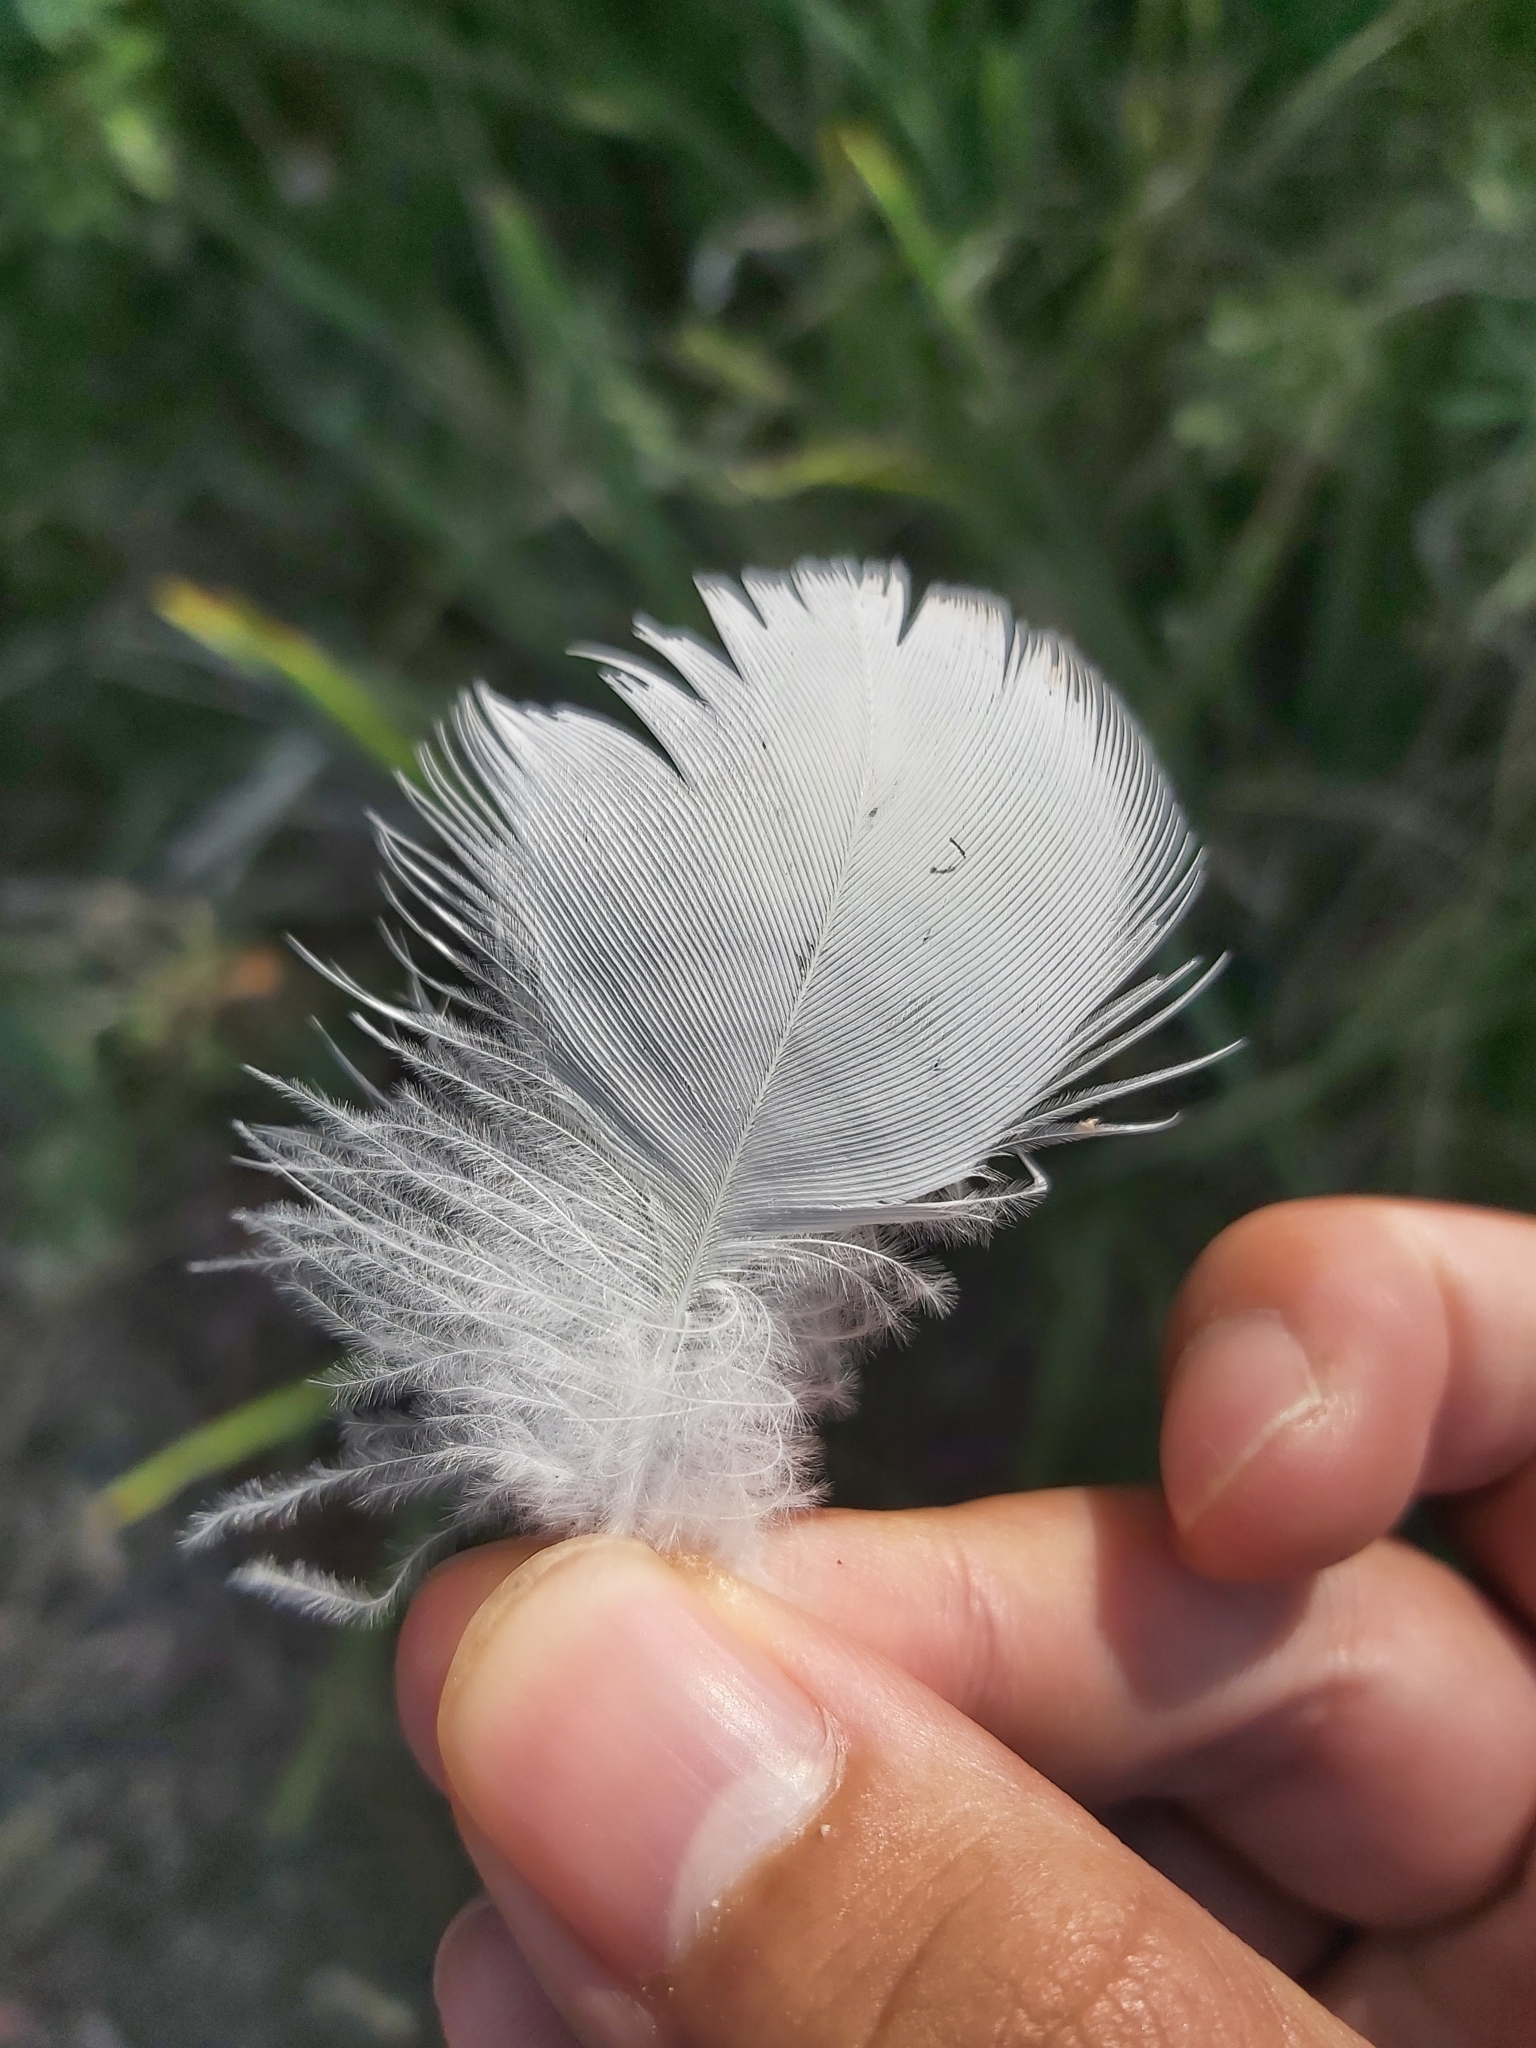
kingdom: Animalia
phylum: Chordata
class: Aves
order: Psittaciformes
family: Psittacidae
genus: Cacatua
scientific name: Cacatua galerita
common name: Sulphur-crested cockatoo
